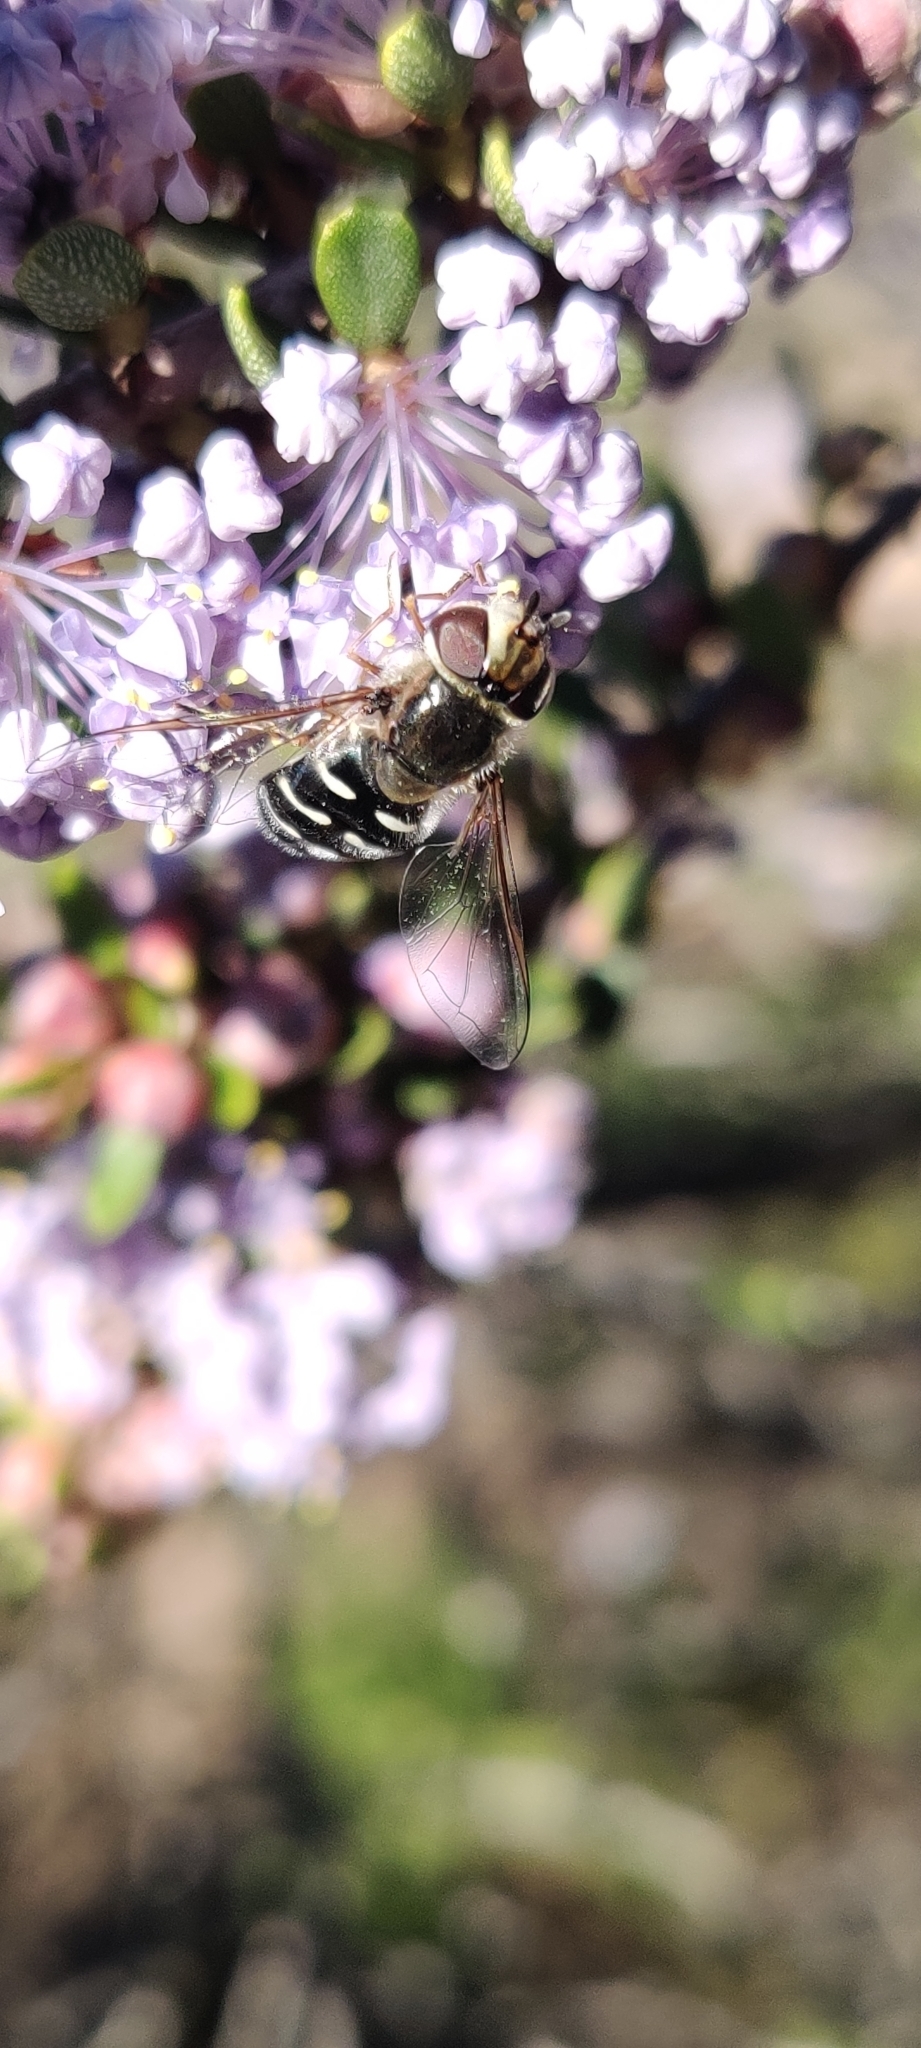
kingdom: Animalia
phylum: Arthropoda
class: Insecta
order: Diptera
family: Syrphidae
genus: Scaeva
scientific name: Scaeva affinis
